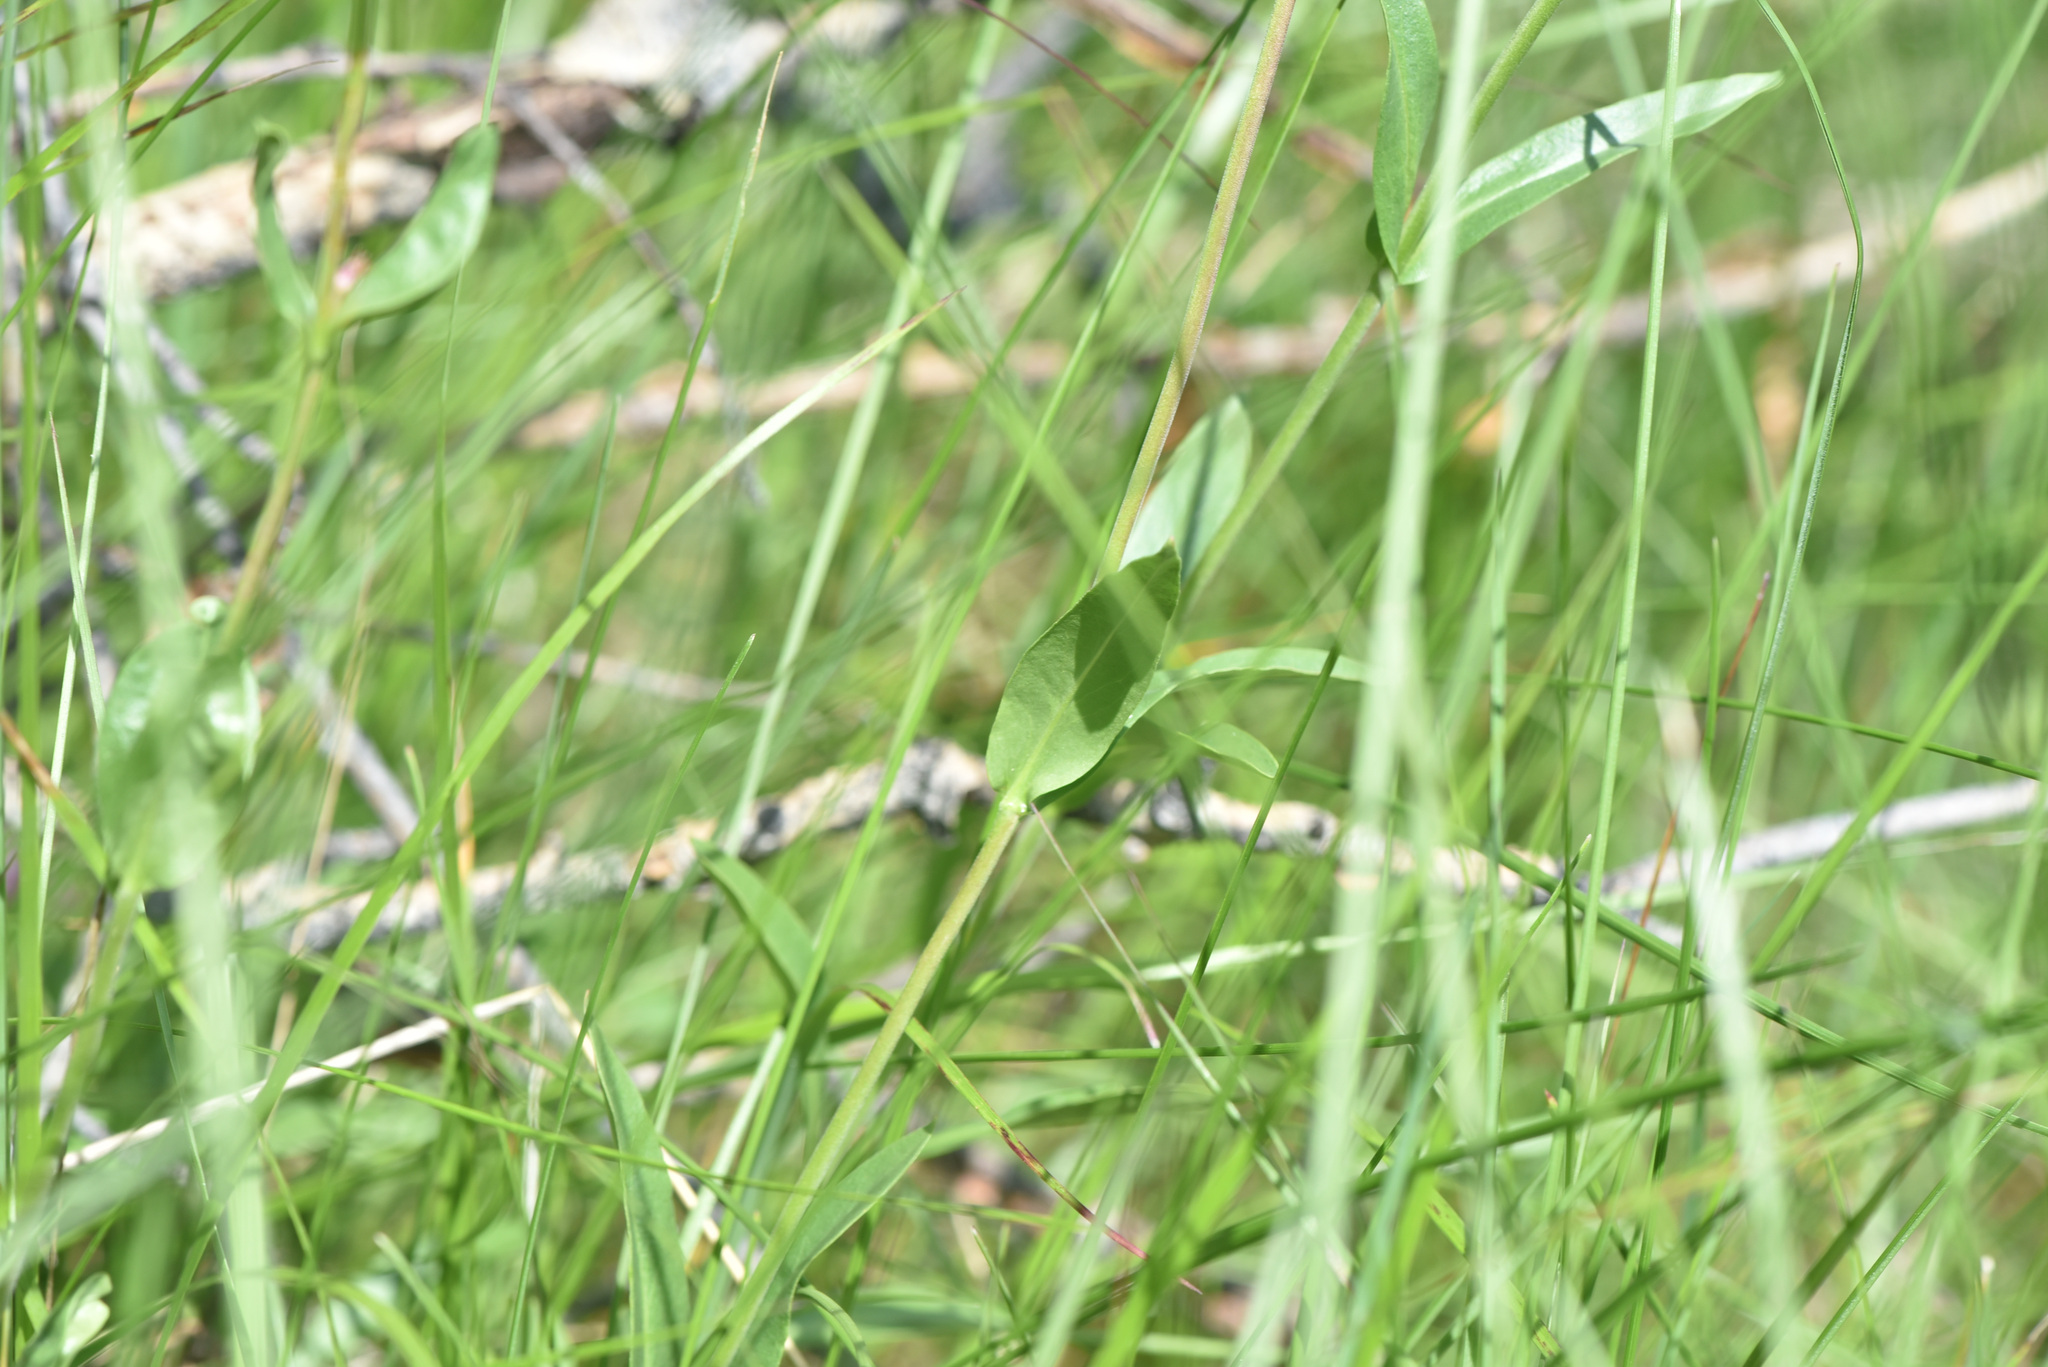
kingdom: Plantae
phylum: Tracheophyta
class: Magnoliopsida
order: Lamiales
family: Plantaginaceae
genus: Penstemon
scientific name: Penstemon procerus
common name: Small-flower penstemon
